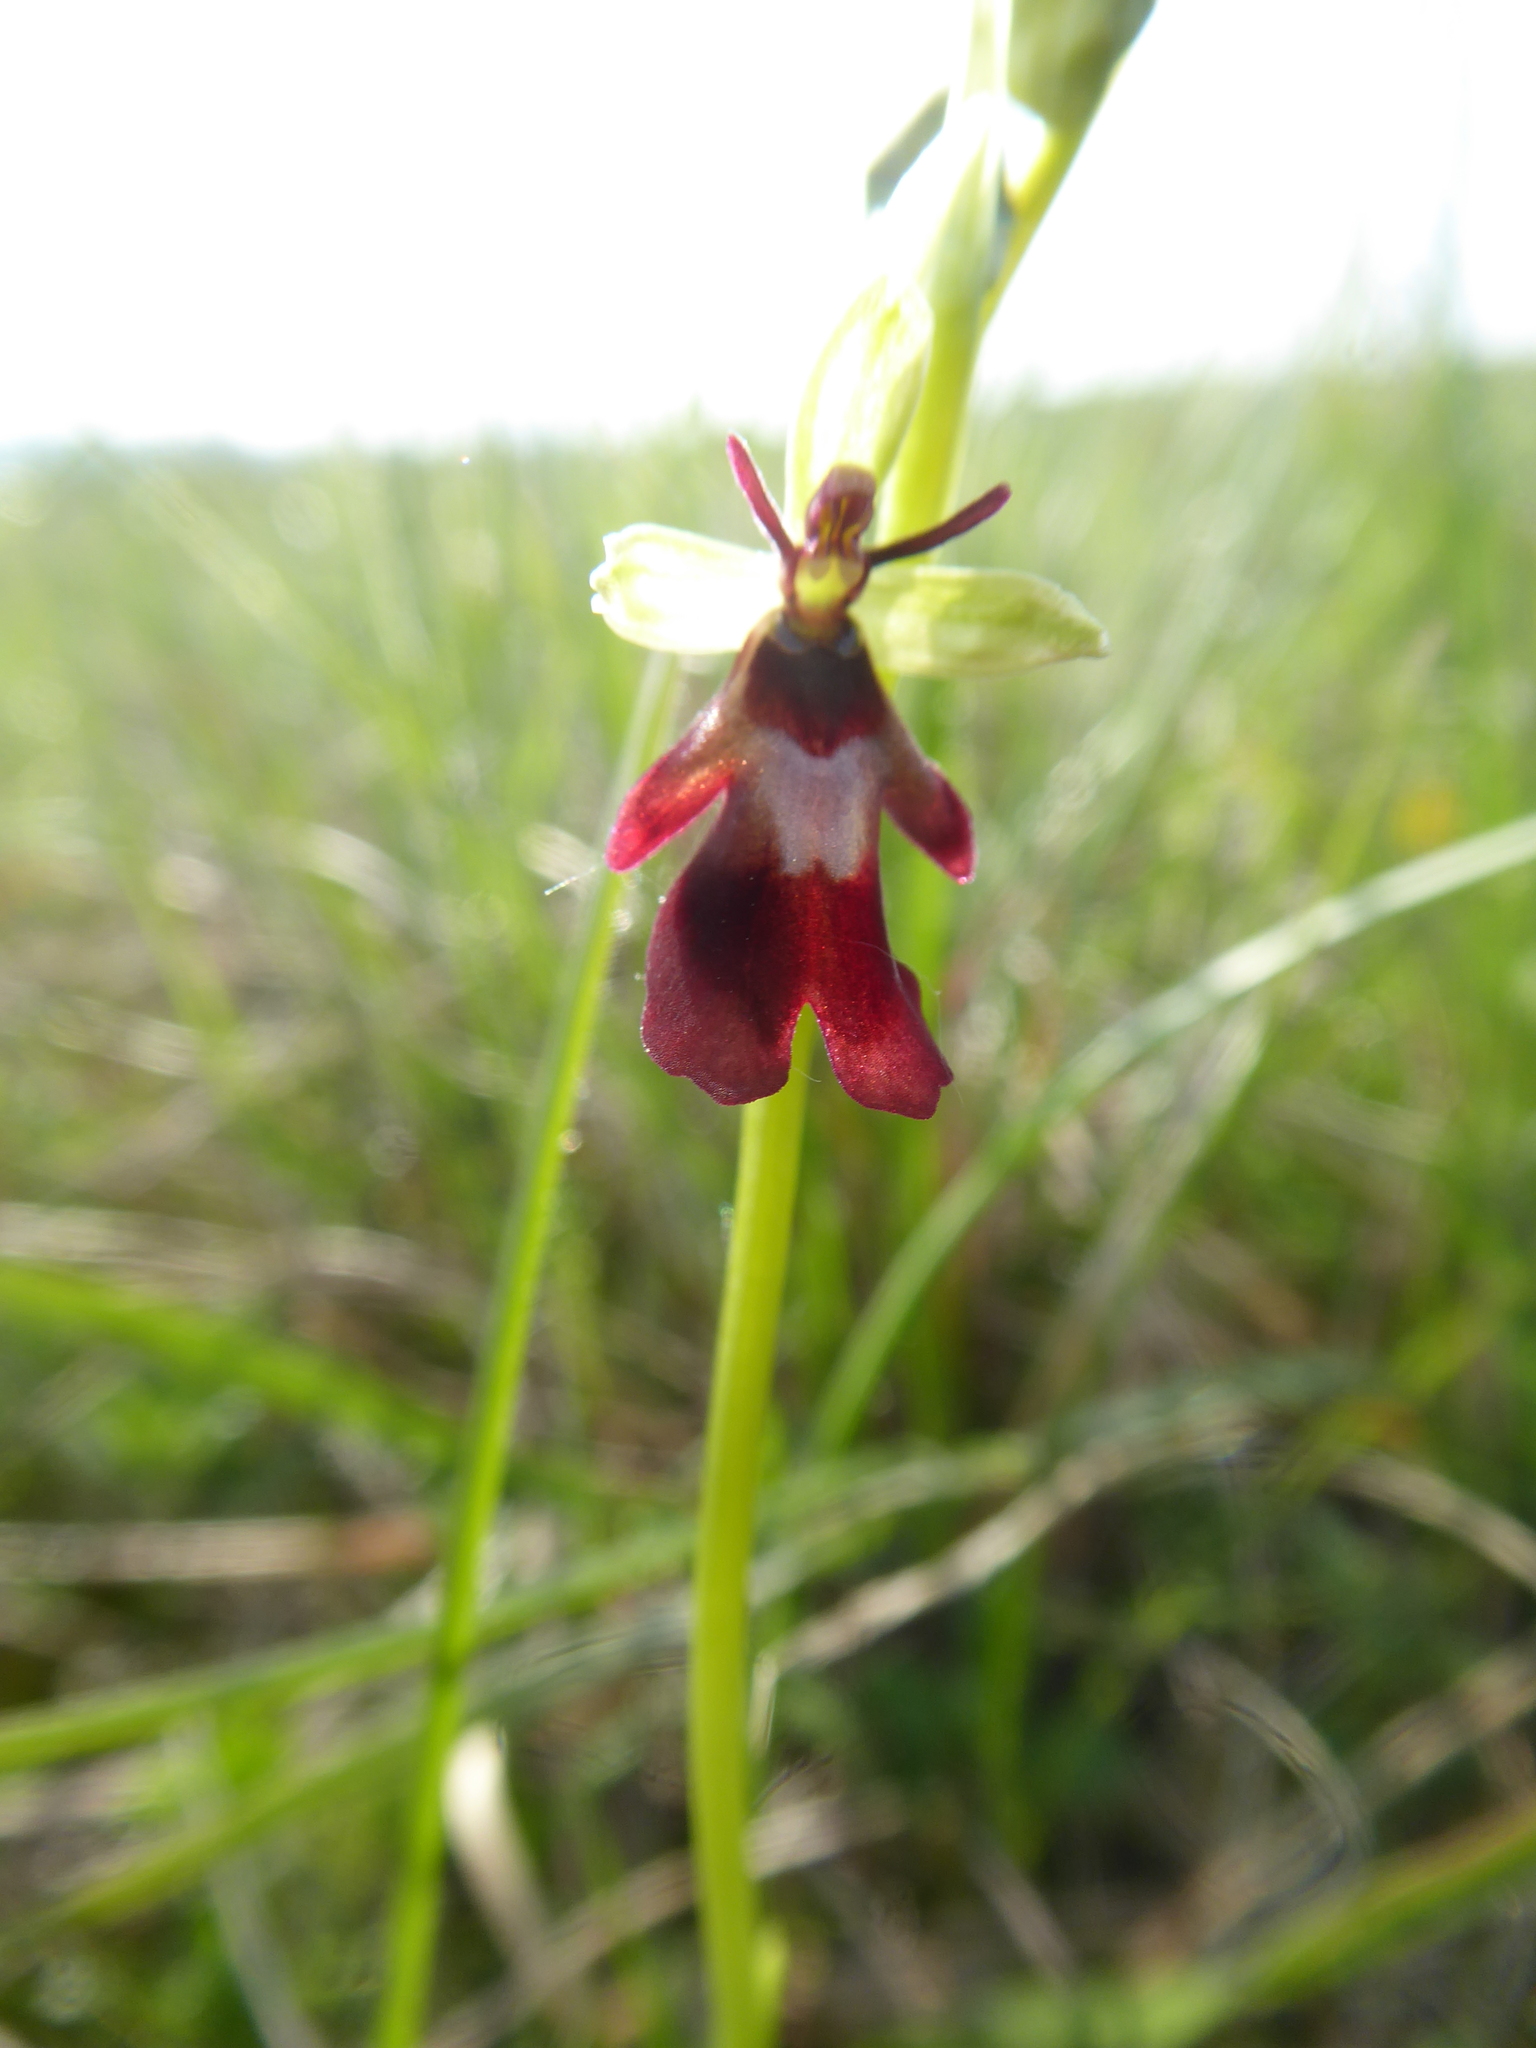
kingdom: Plantae
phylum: Tracheophyta
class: Liliopsida
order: Asparagales
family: Orchidaceae
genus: Ophrys
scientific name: Ophrys insectifera
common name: Fly orchid
